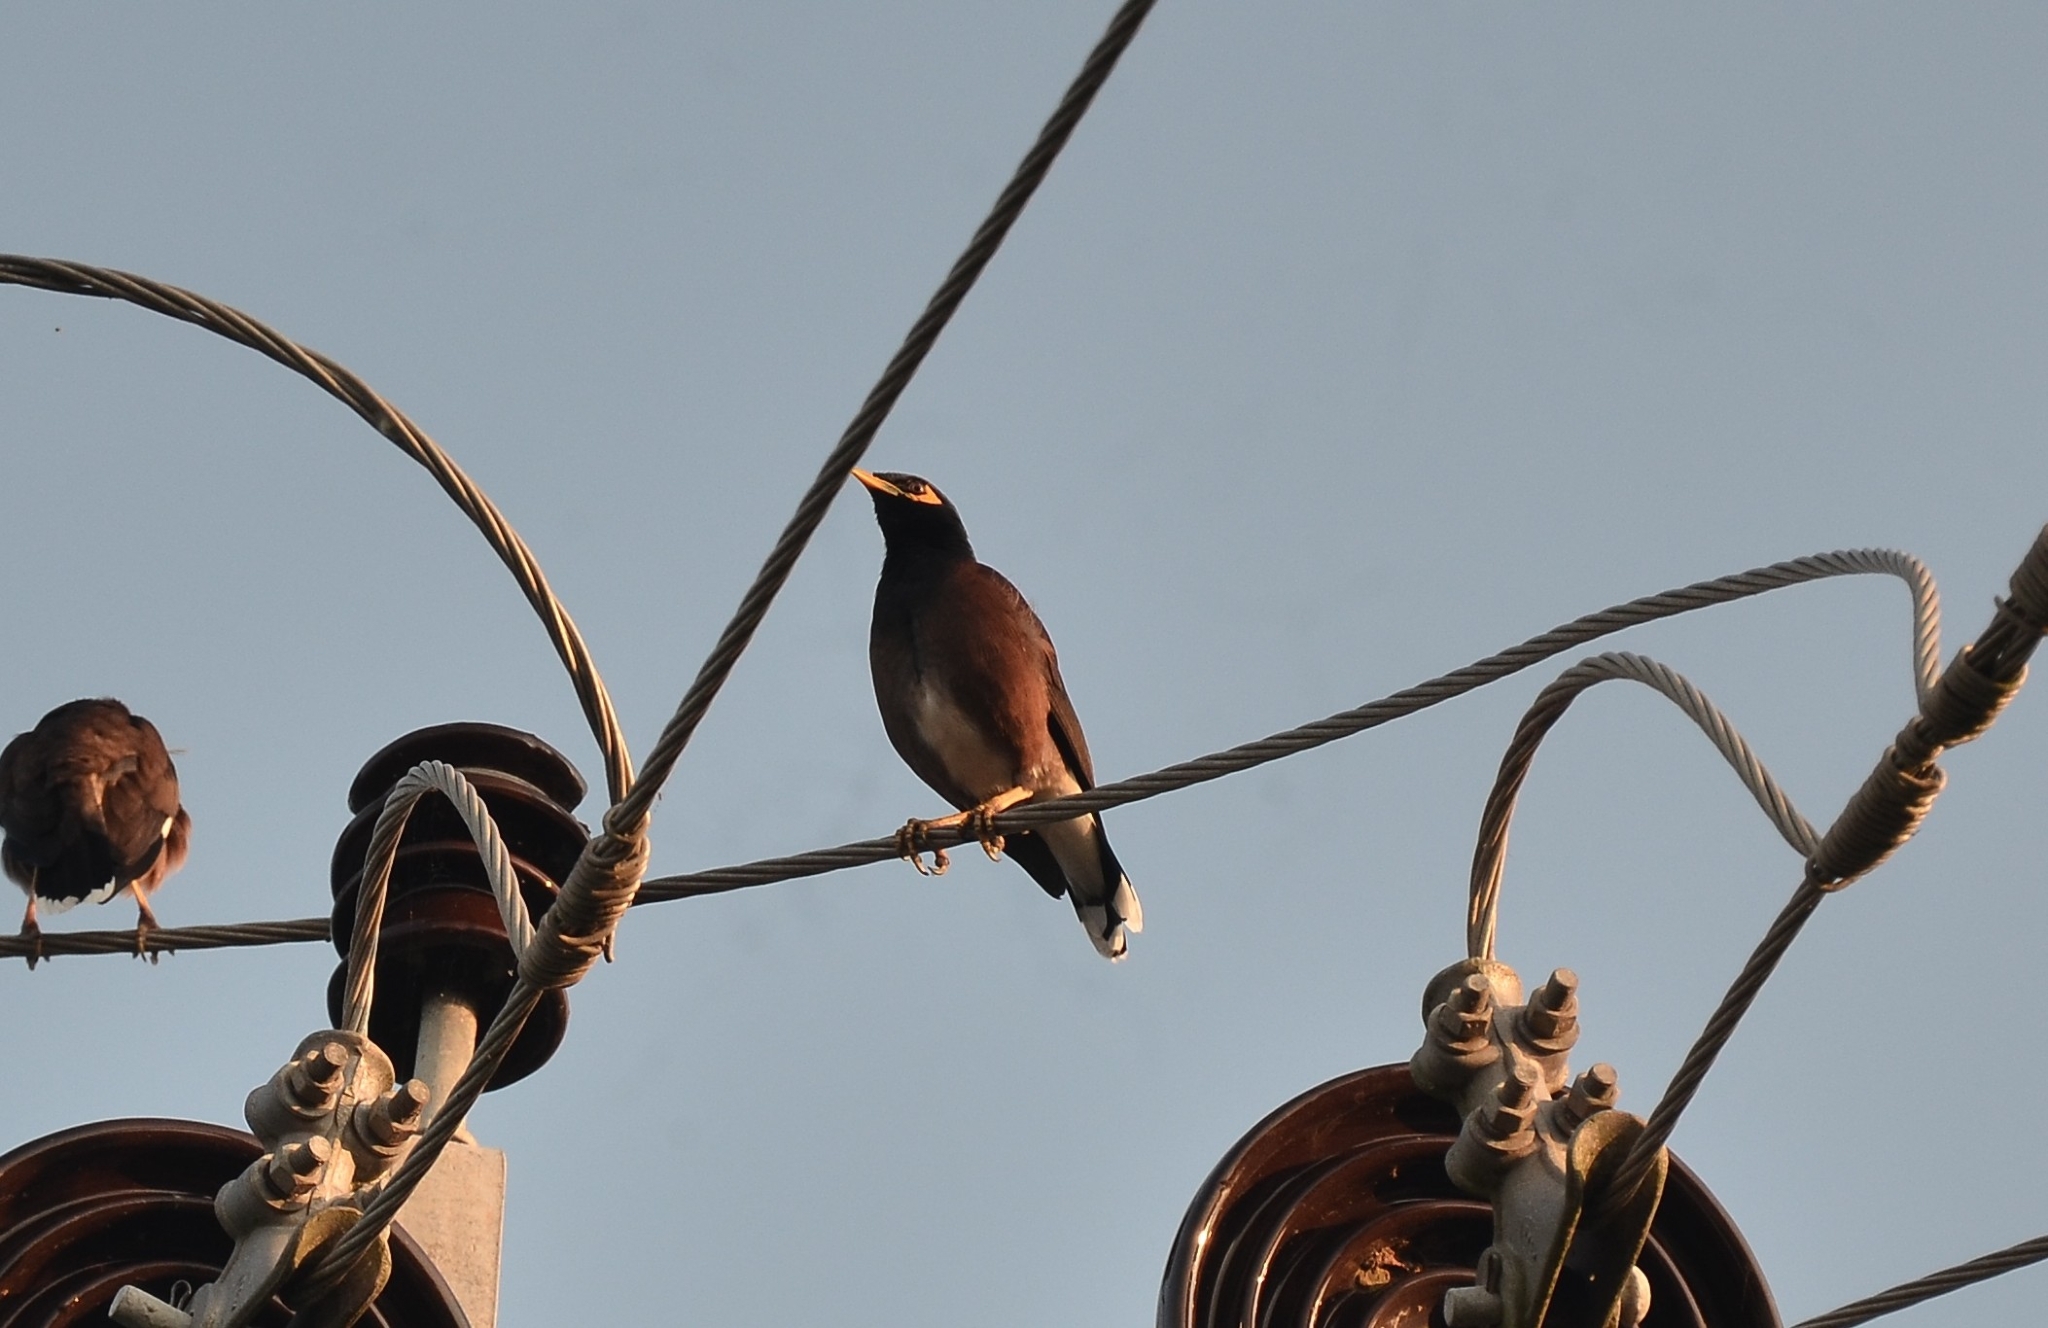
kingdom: Animalia
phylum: Chordata
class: Aves
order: Passeriformes
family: Sturnidae
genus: Acridotheres
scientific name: Acridotheres tristis
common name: Common myna
